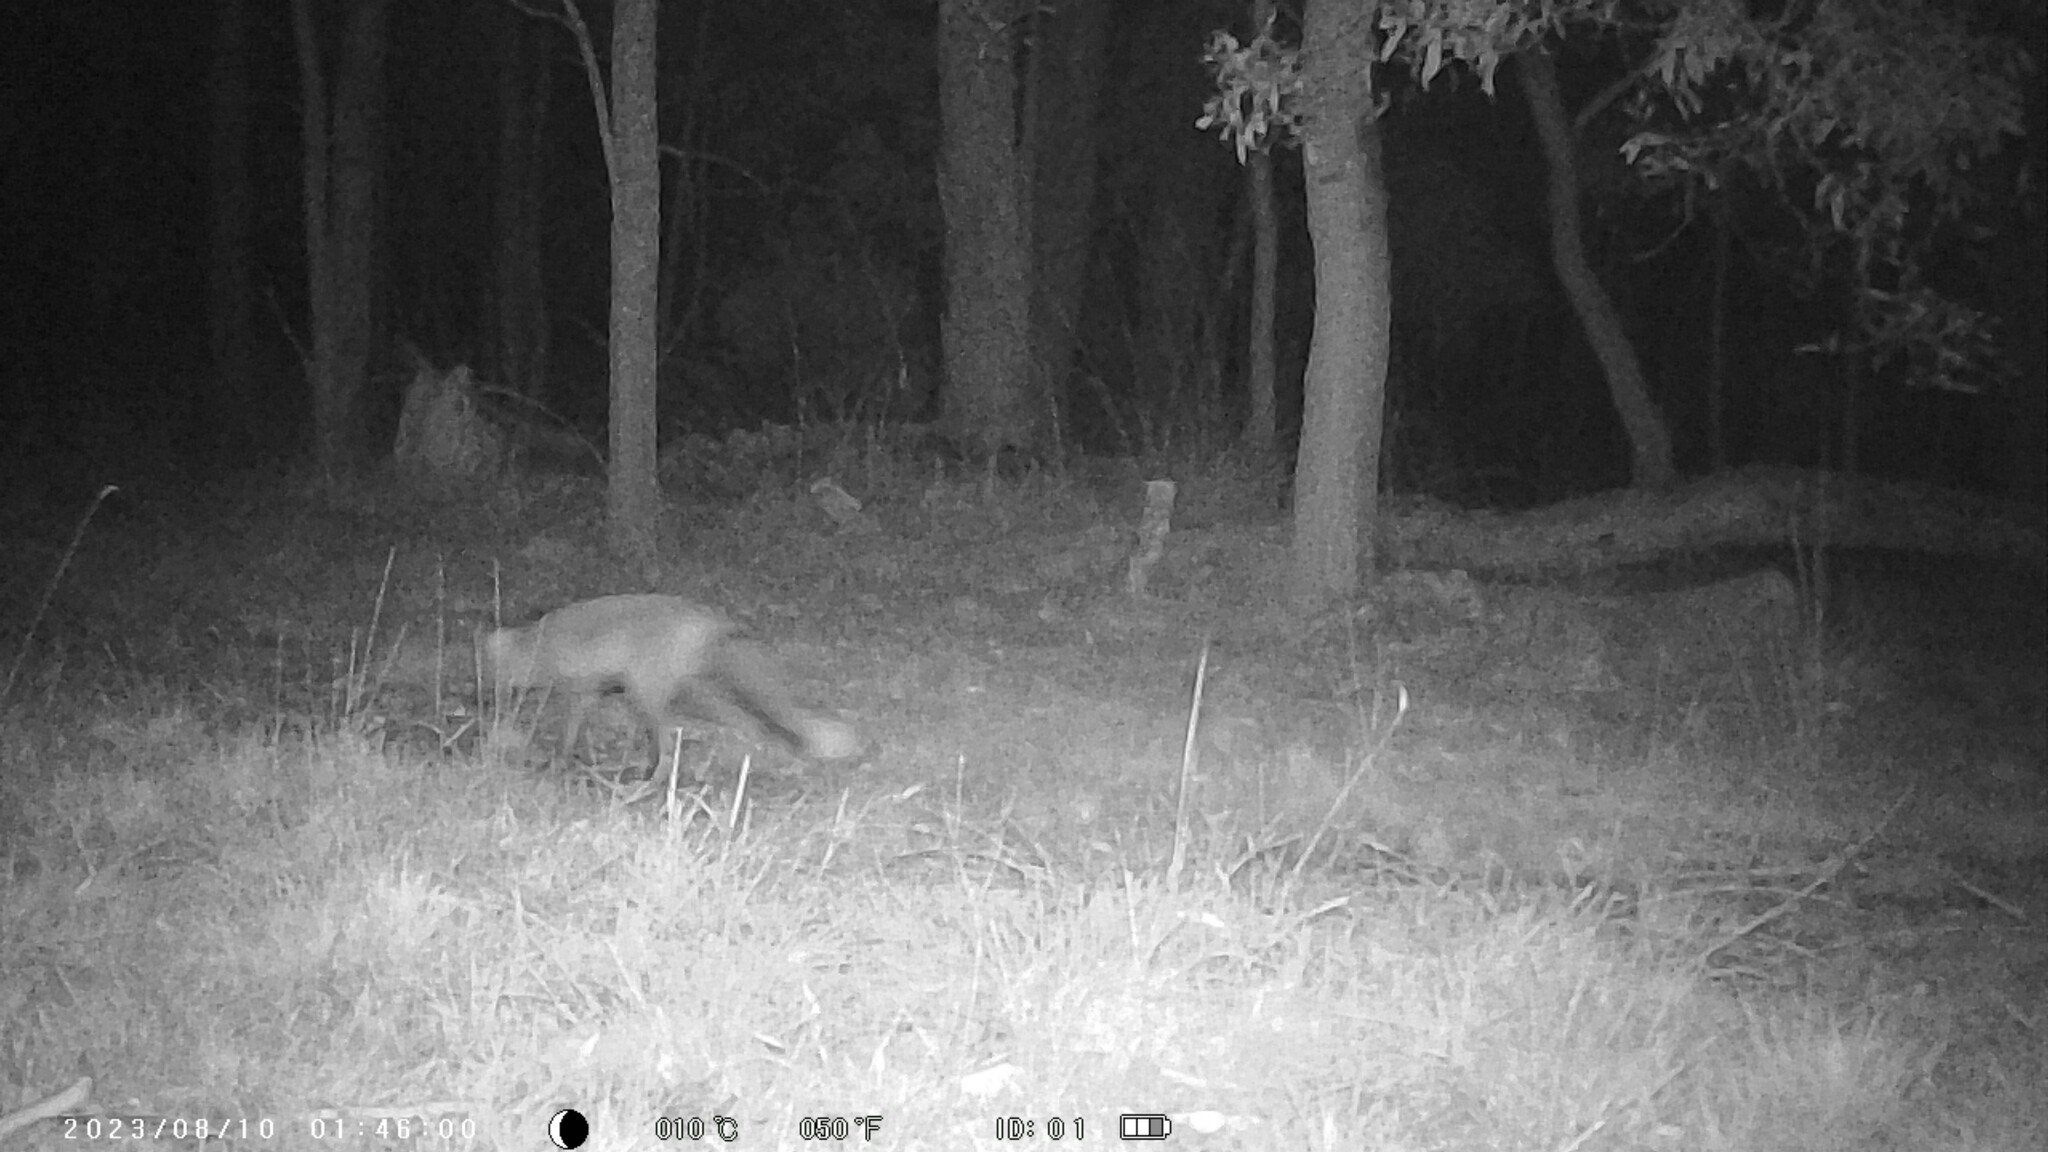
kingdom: Animalia
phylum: Chordata
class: Mammalia
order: Carnivora
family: Canidae
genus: Vulpes
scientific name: Vulpes vulpes
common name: Red fox
